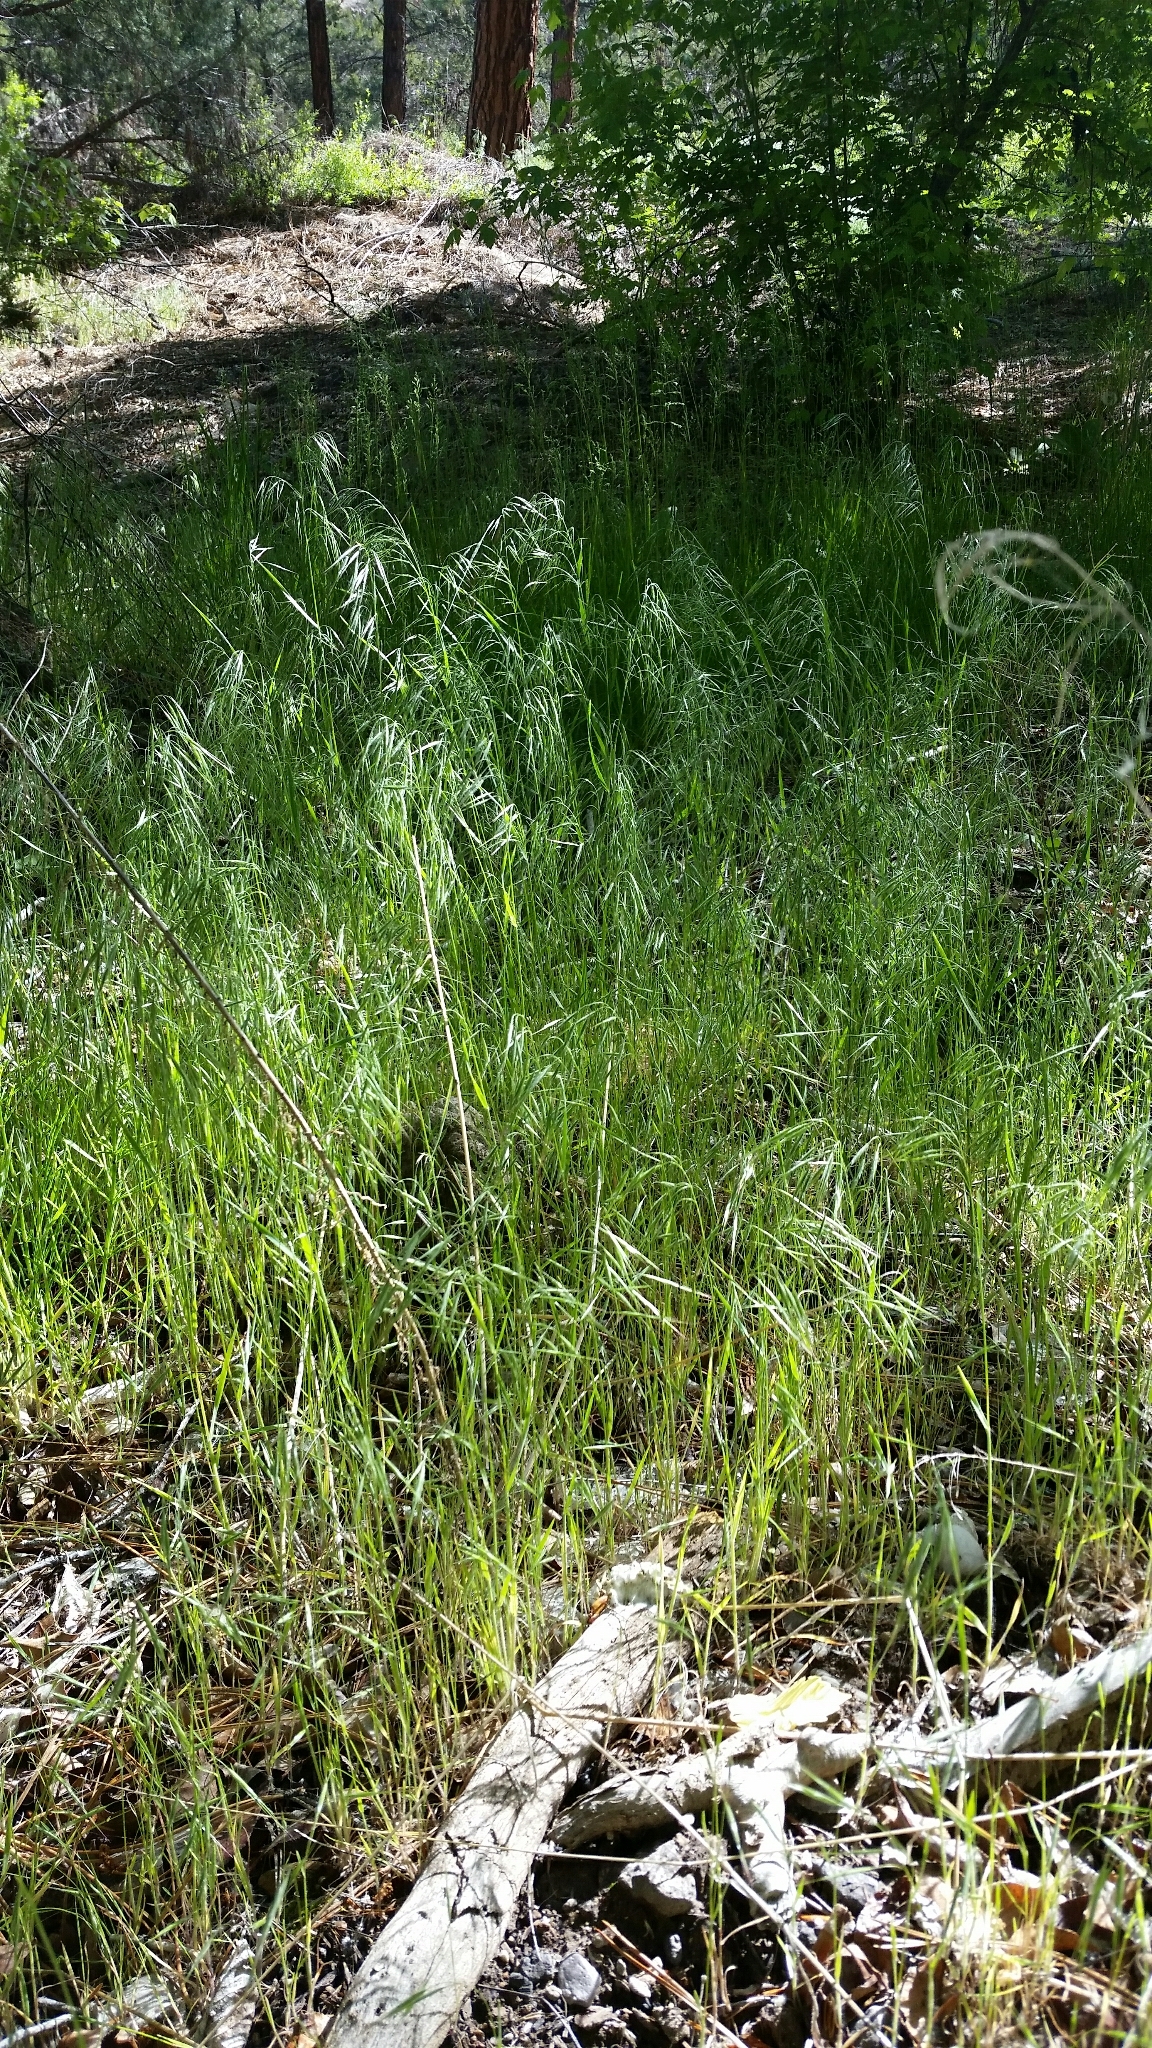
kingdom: Plantae
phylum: Tracheophyta
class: Liliopsida
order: Poales
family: Poaceae
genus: Bromus
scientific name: Bromus tectorum
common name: Cheatgrass
